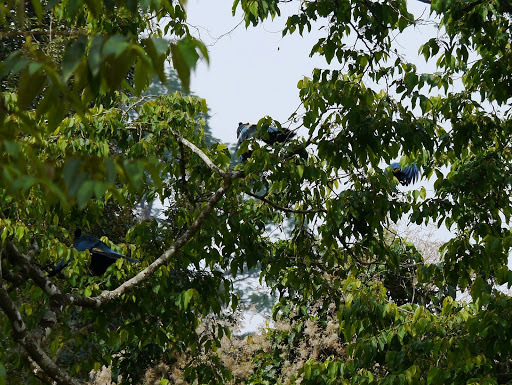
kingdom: Animalia
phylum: Chordata
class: Aves
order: Musophagiformes
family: Musophagidae
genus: Corythaeola
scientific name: Corythaeola cristata
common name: Great blue turaco
